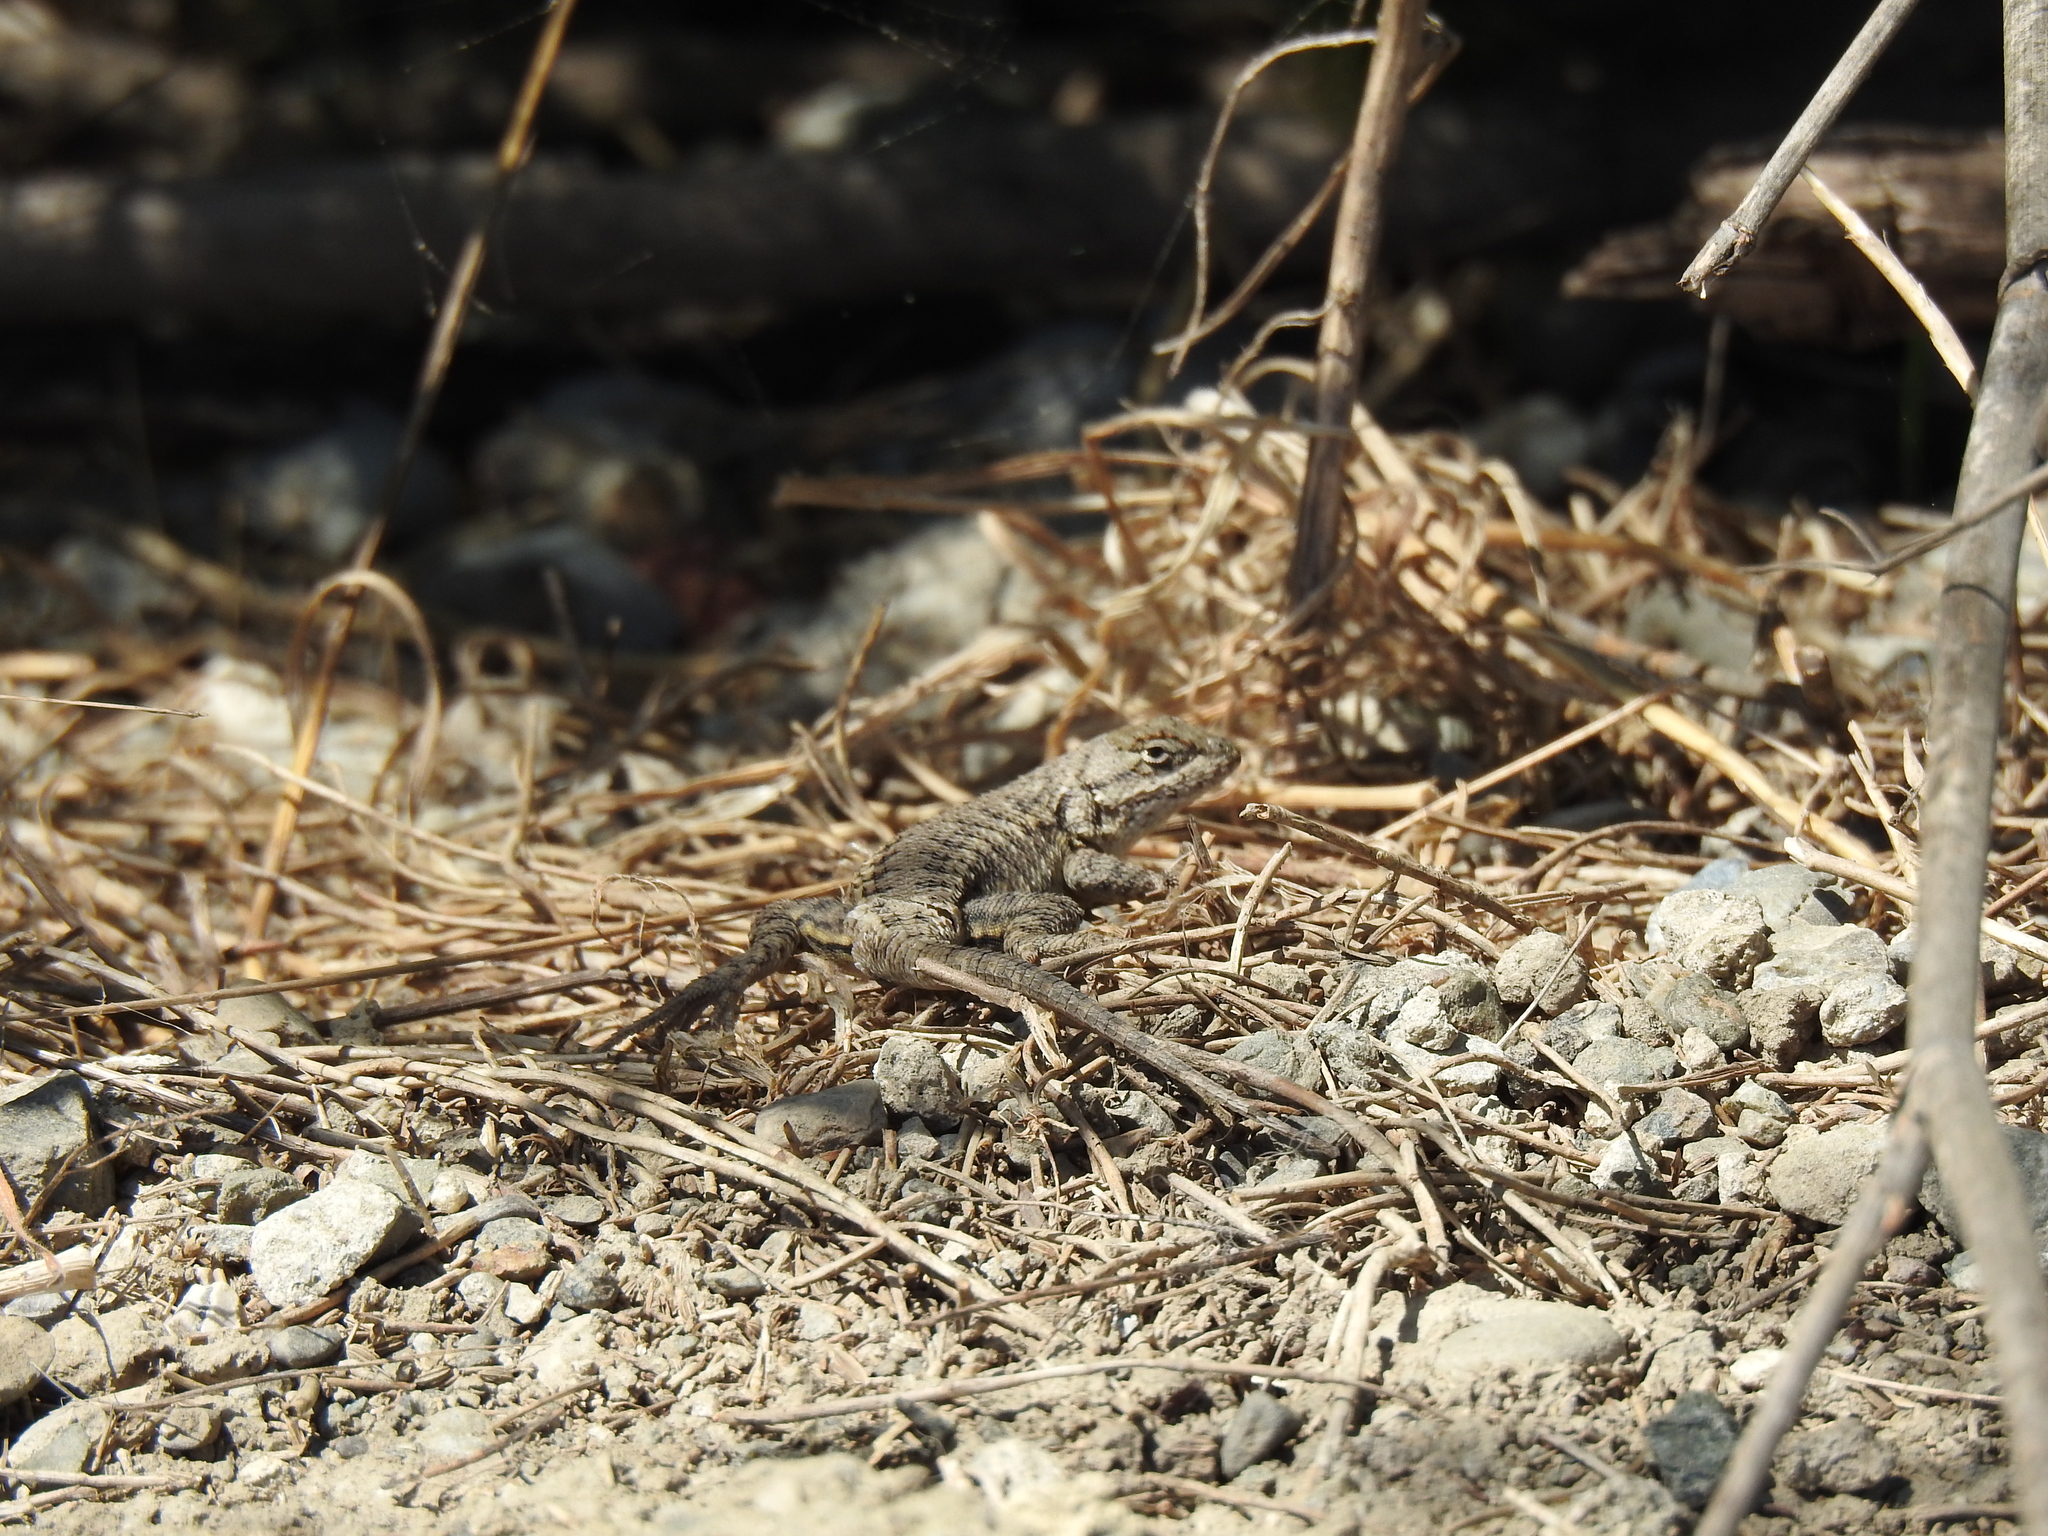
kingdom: Animalia
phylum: Chordata
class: Squamata
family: Phrynosomatidae
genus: Sceloporus
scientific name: Sceloporus occidentalis
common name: Western fence lizard
